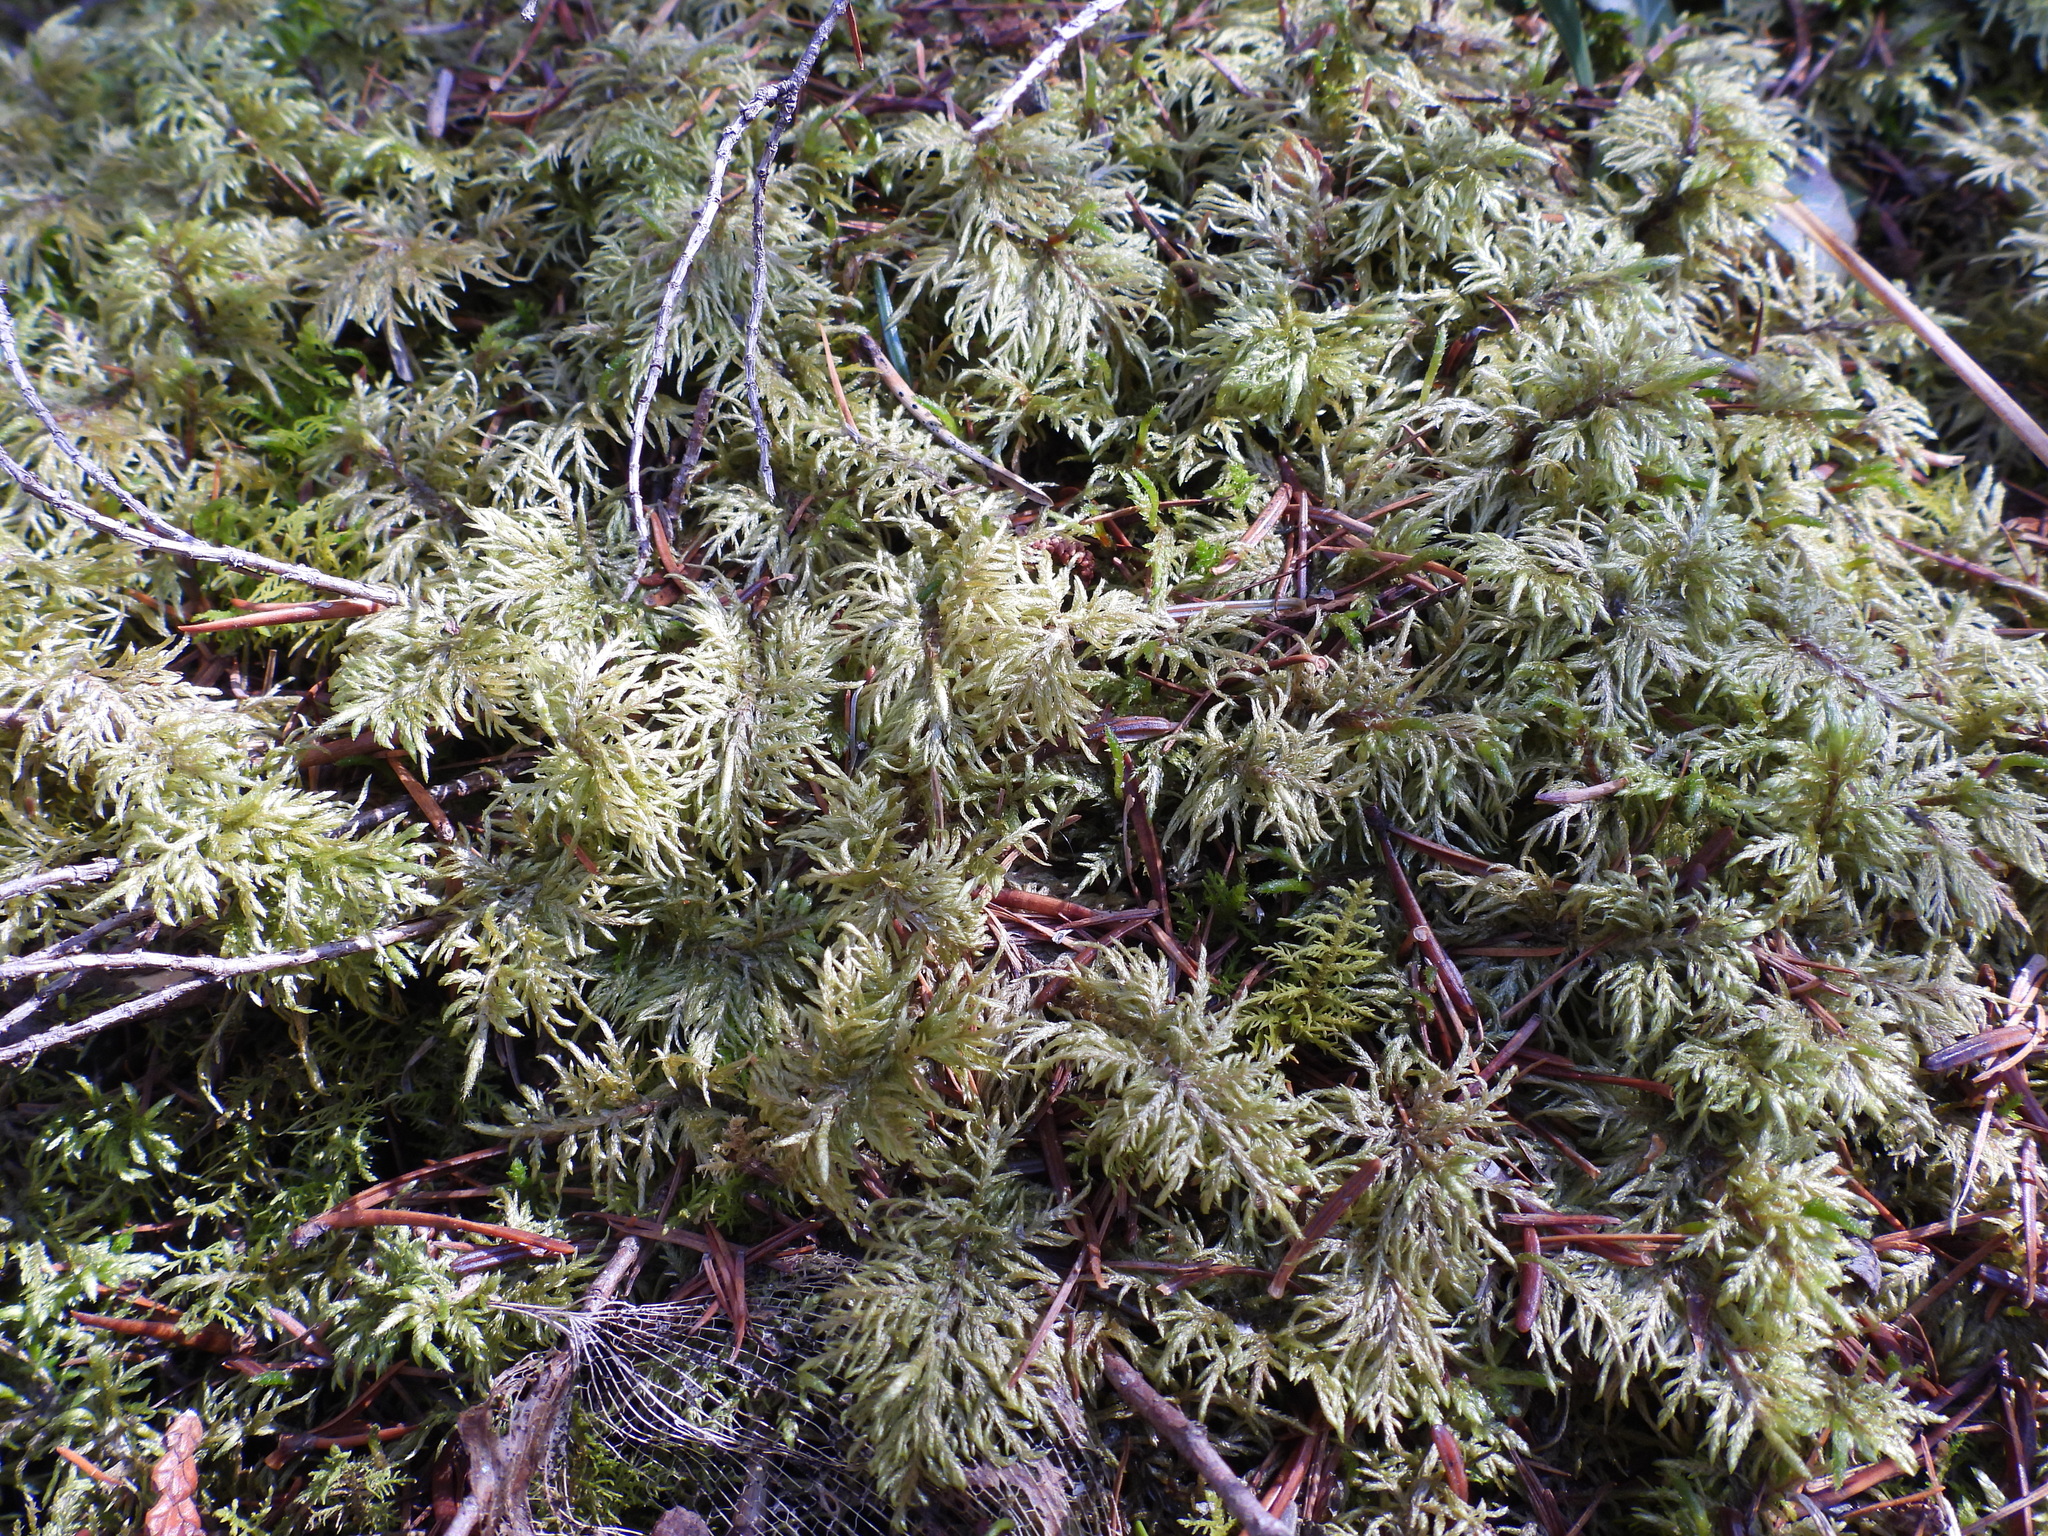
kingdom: Plantae
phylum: Bryophyta
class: Bryopsida
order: Hypnales
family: Hylocomiaceae
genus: Hylocomium
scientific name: Hylocomium splendens
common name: Stairstep moss
